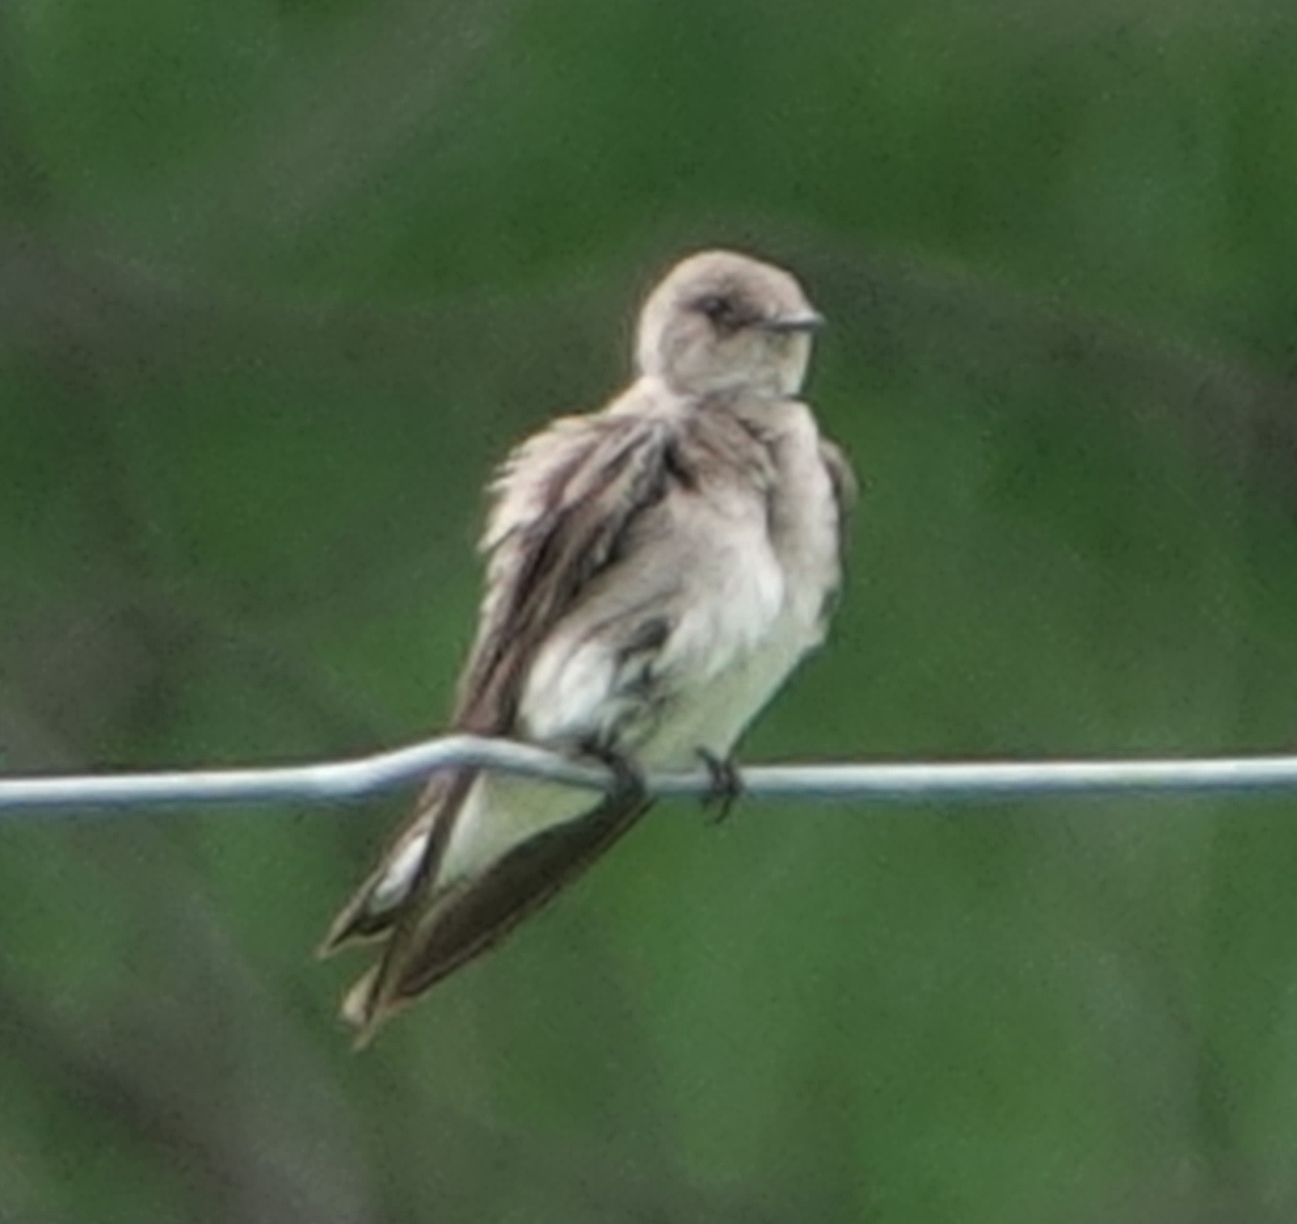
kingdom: Animalia
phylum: Chordata
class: Aves
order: Passeriformes
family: Hirundinidae
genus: Stelgidopteryx
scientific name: Stelgidopteryx serripennis
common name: Northern rough-winged swallow
